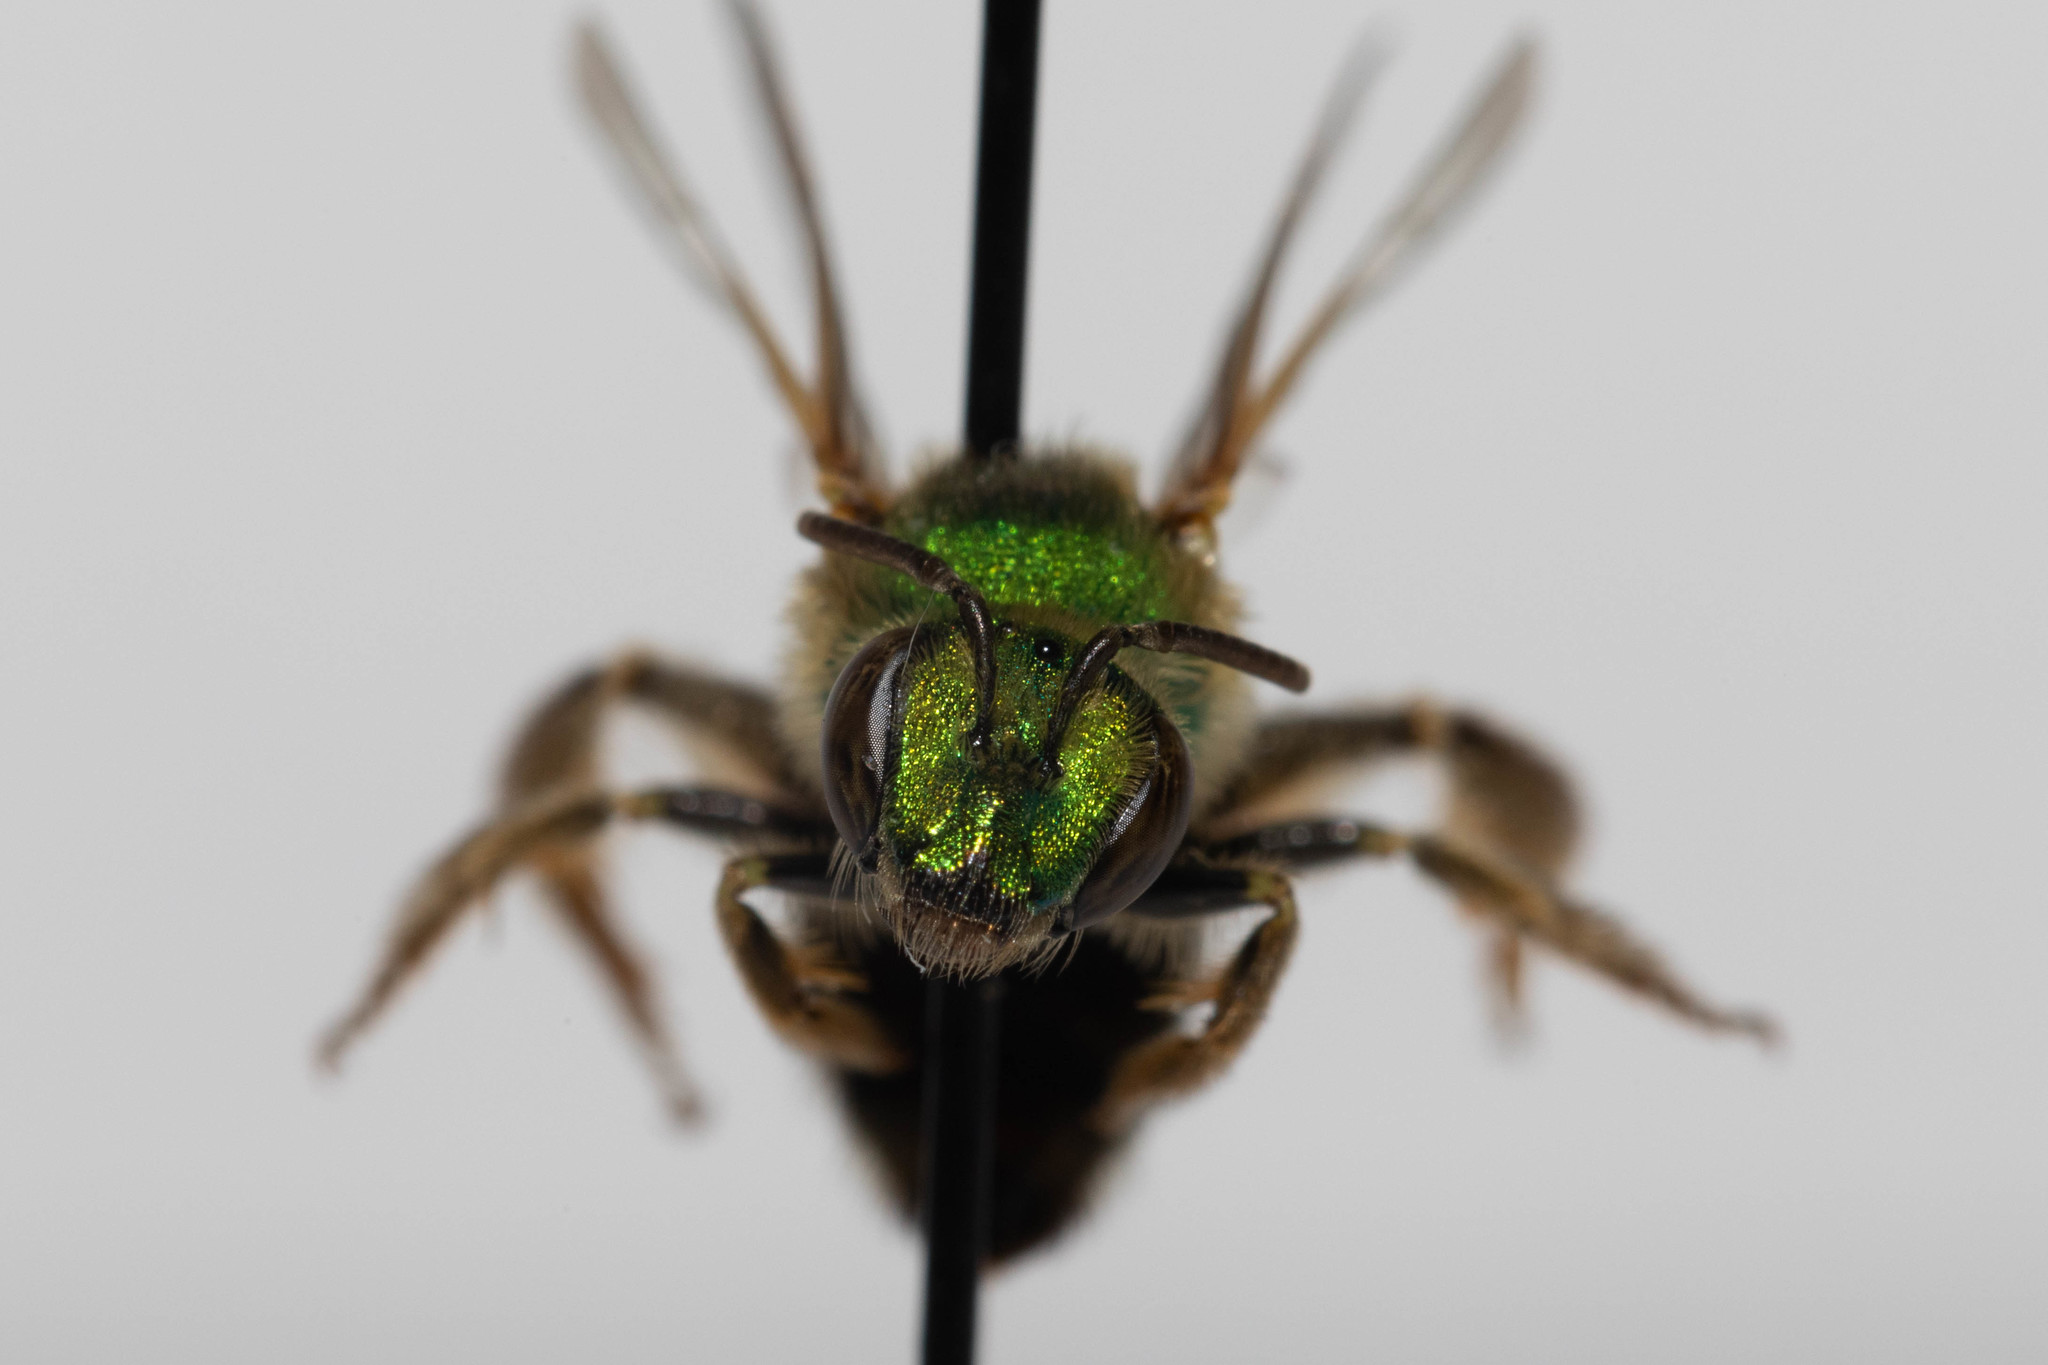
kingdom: Animalia
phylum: Arthropoda
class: Insecta
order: Hymenoptera
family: Halictidae
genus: Agapostemon
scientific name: Agapostemon virescens
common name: Bicolored striped sweat bee
